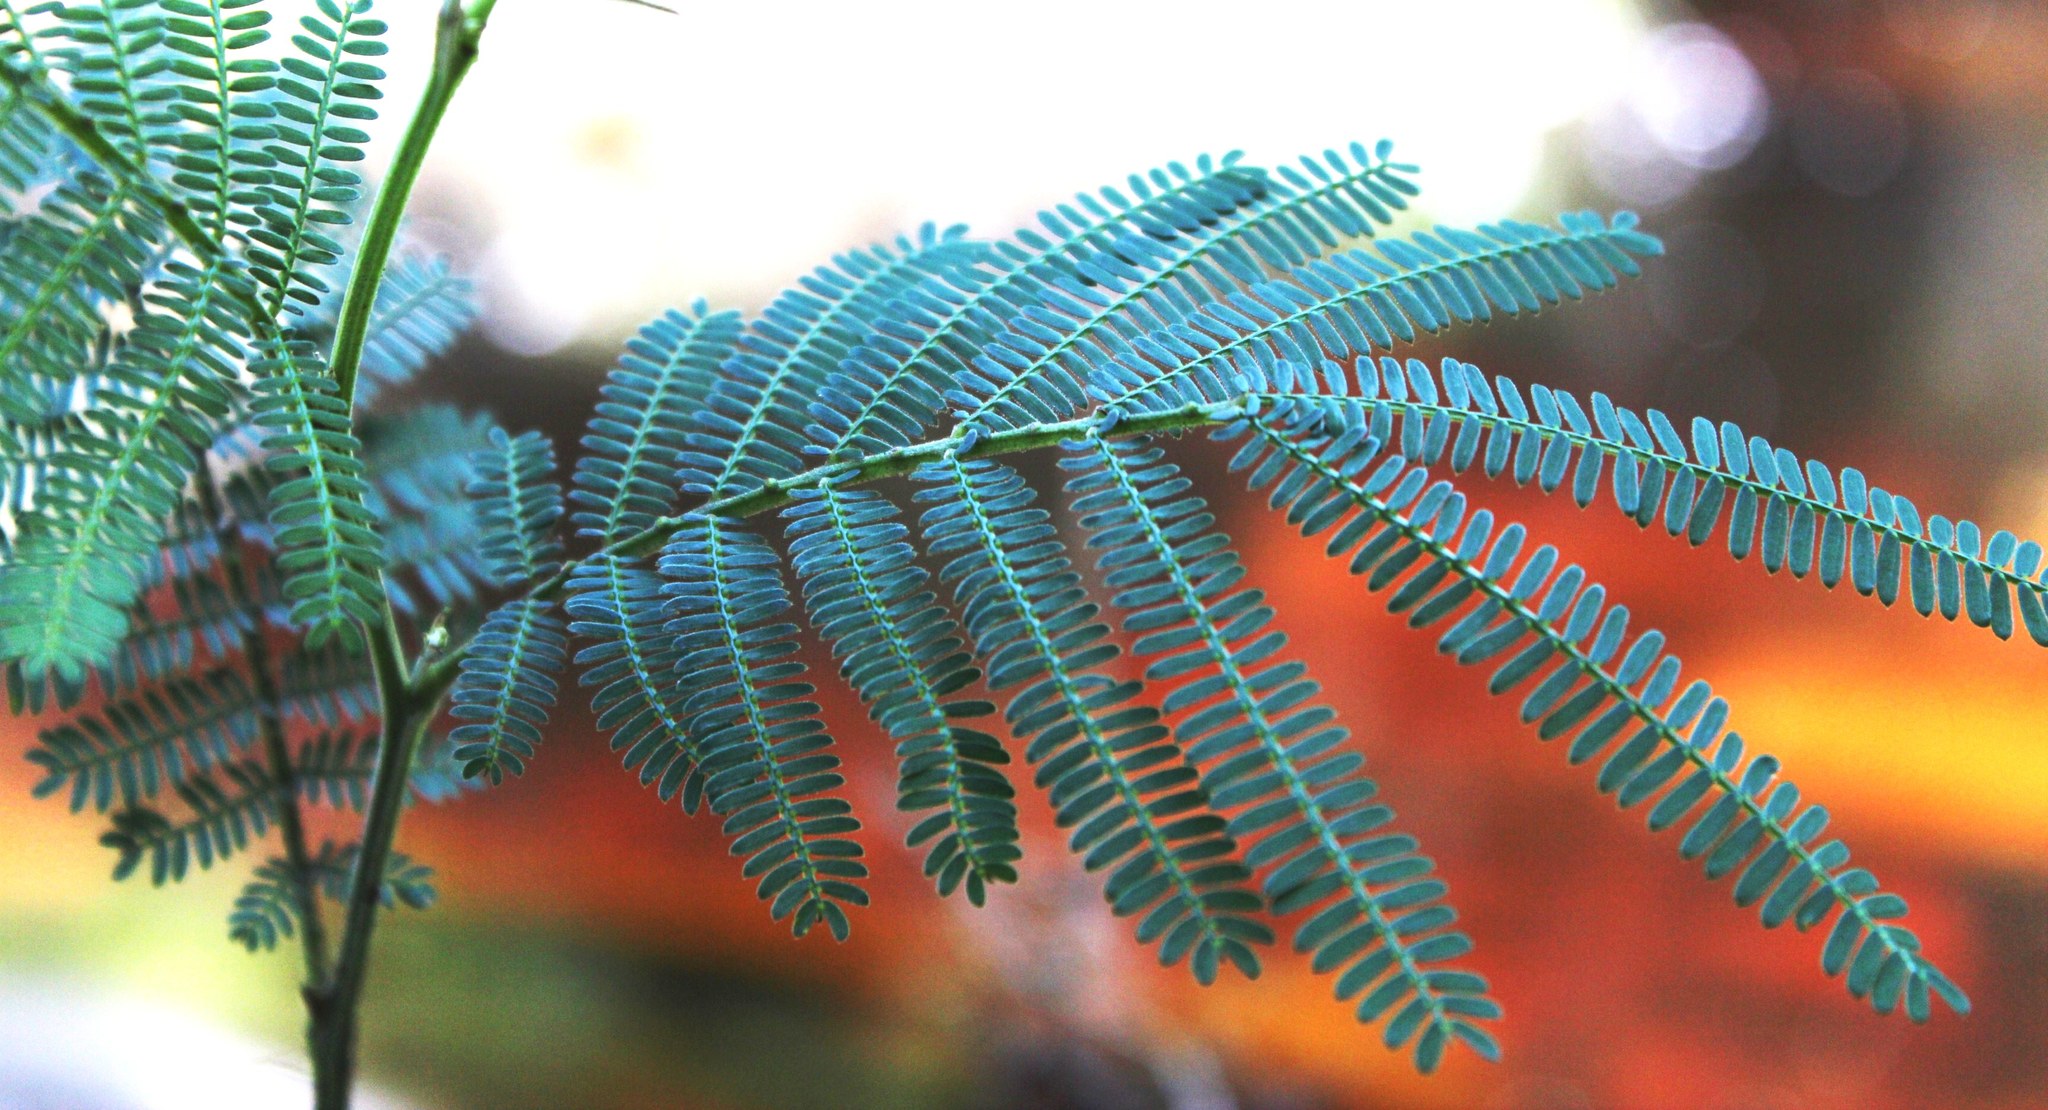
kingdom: Plantae
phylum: Tracheophyta
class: Magnoliopsida
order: Fabales
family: Fabaceae
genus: Acacia
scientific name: Acacia mearnsii
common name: Black wattle
